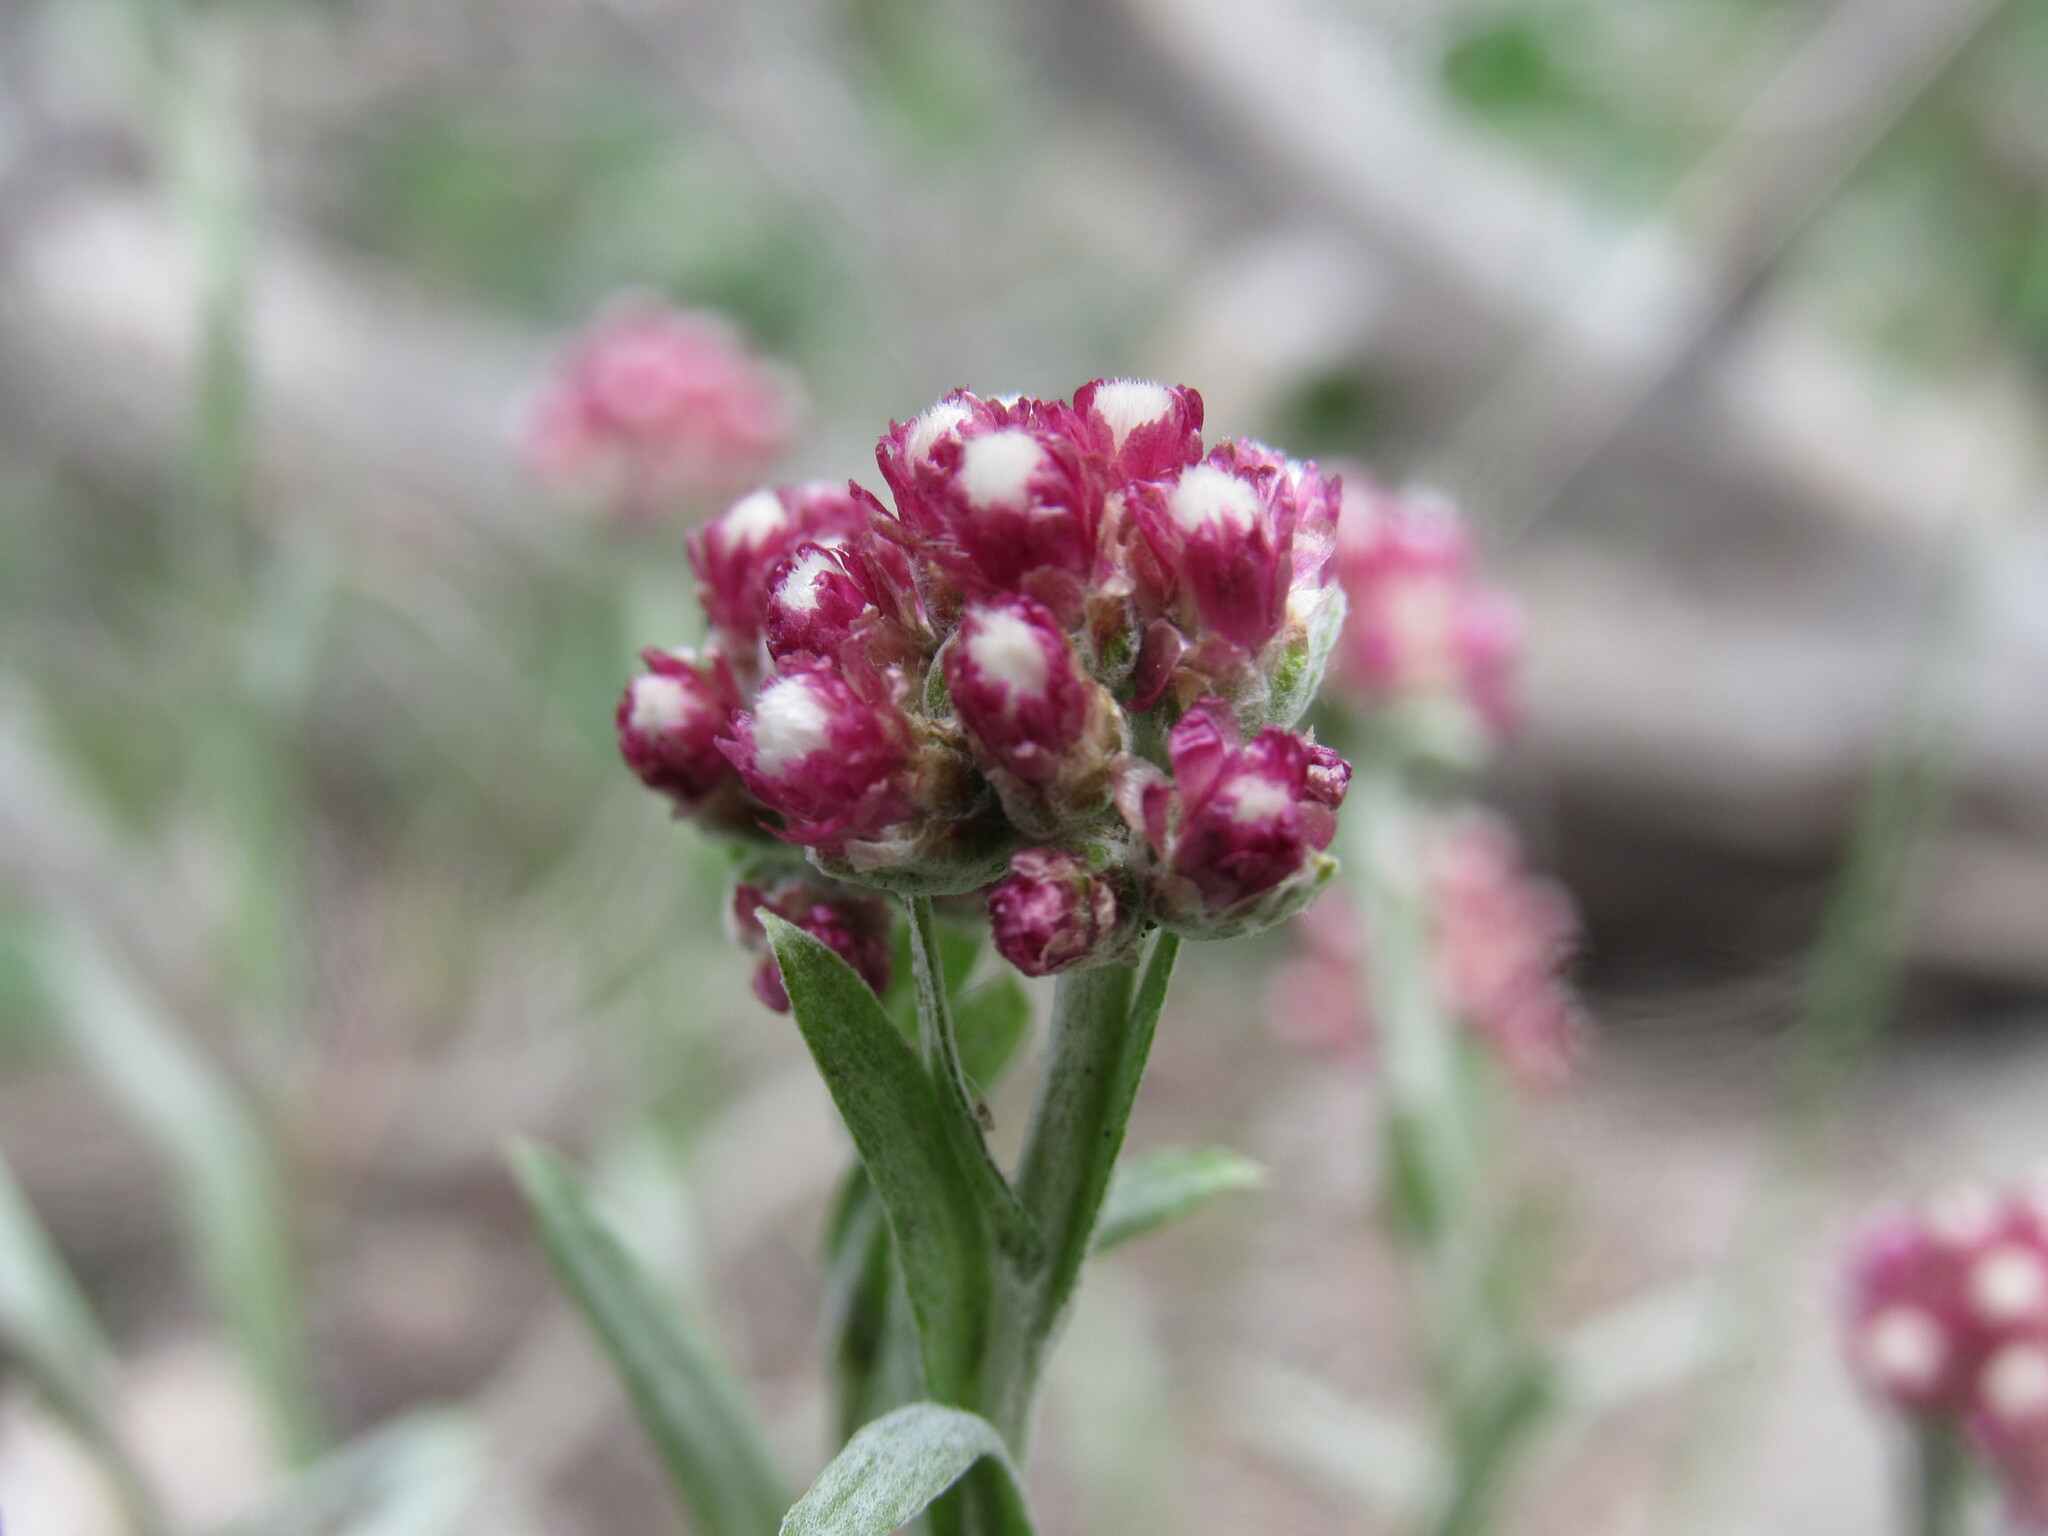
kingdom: Plantae
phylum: Tracheophyta
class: Magnoliopsida
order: Asterales
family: Asteraceae
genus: Antennaria
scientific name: Antennaria rosea
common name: Rosy pussytoes
